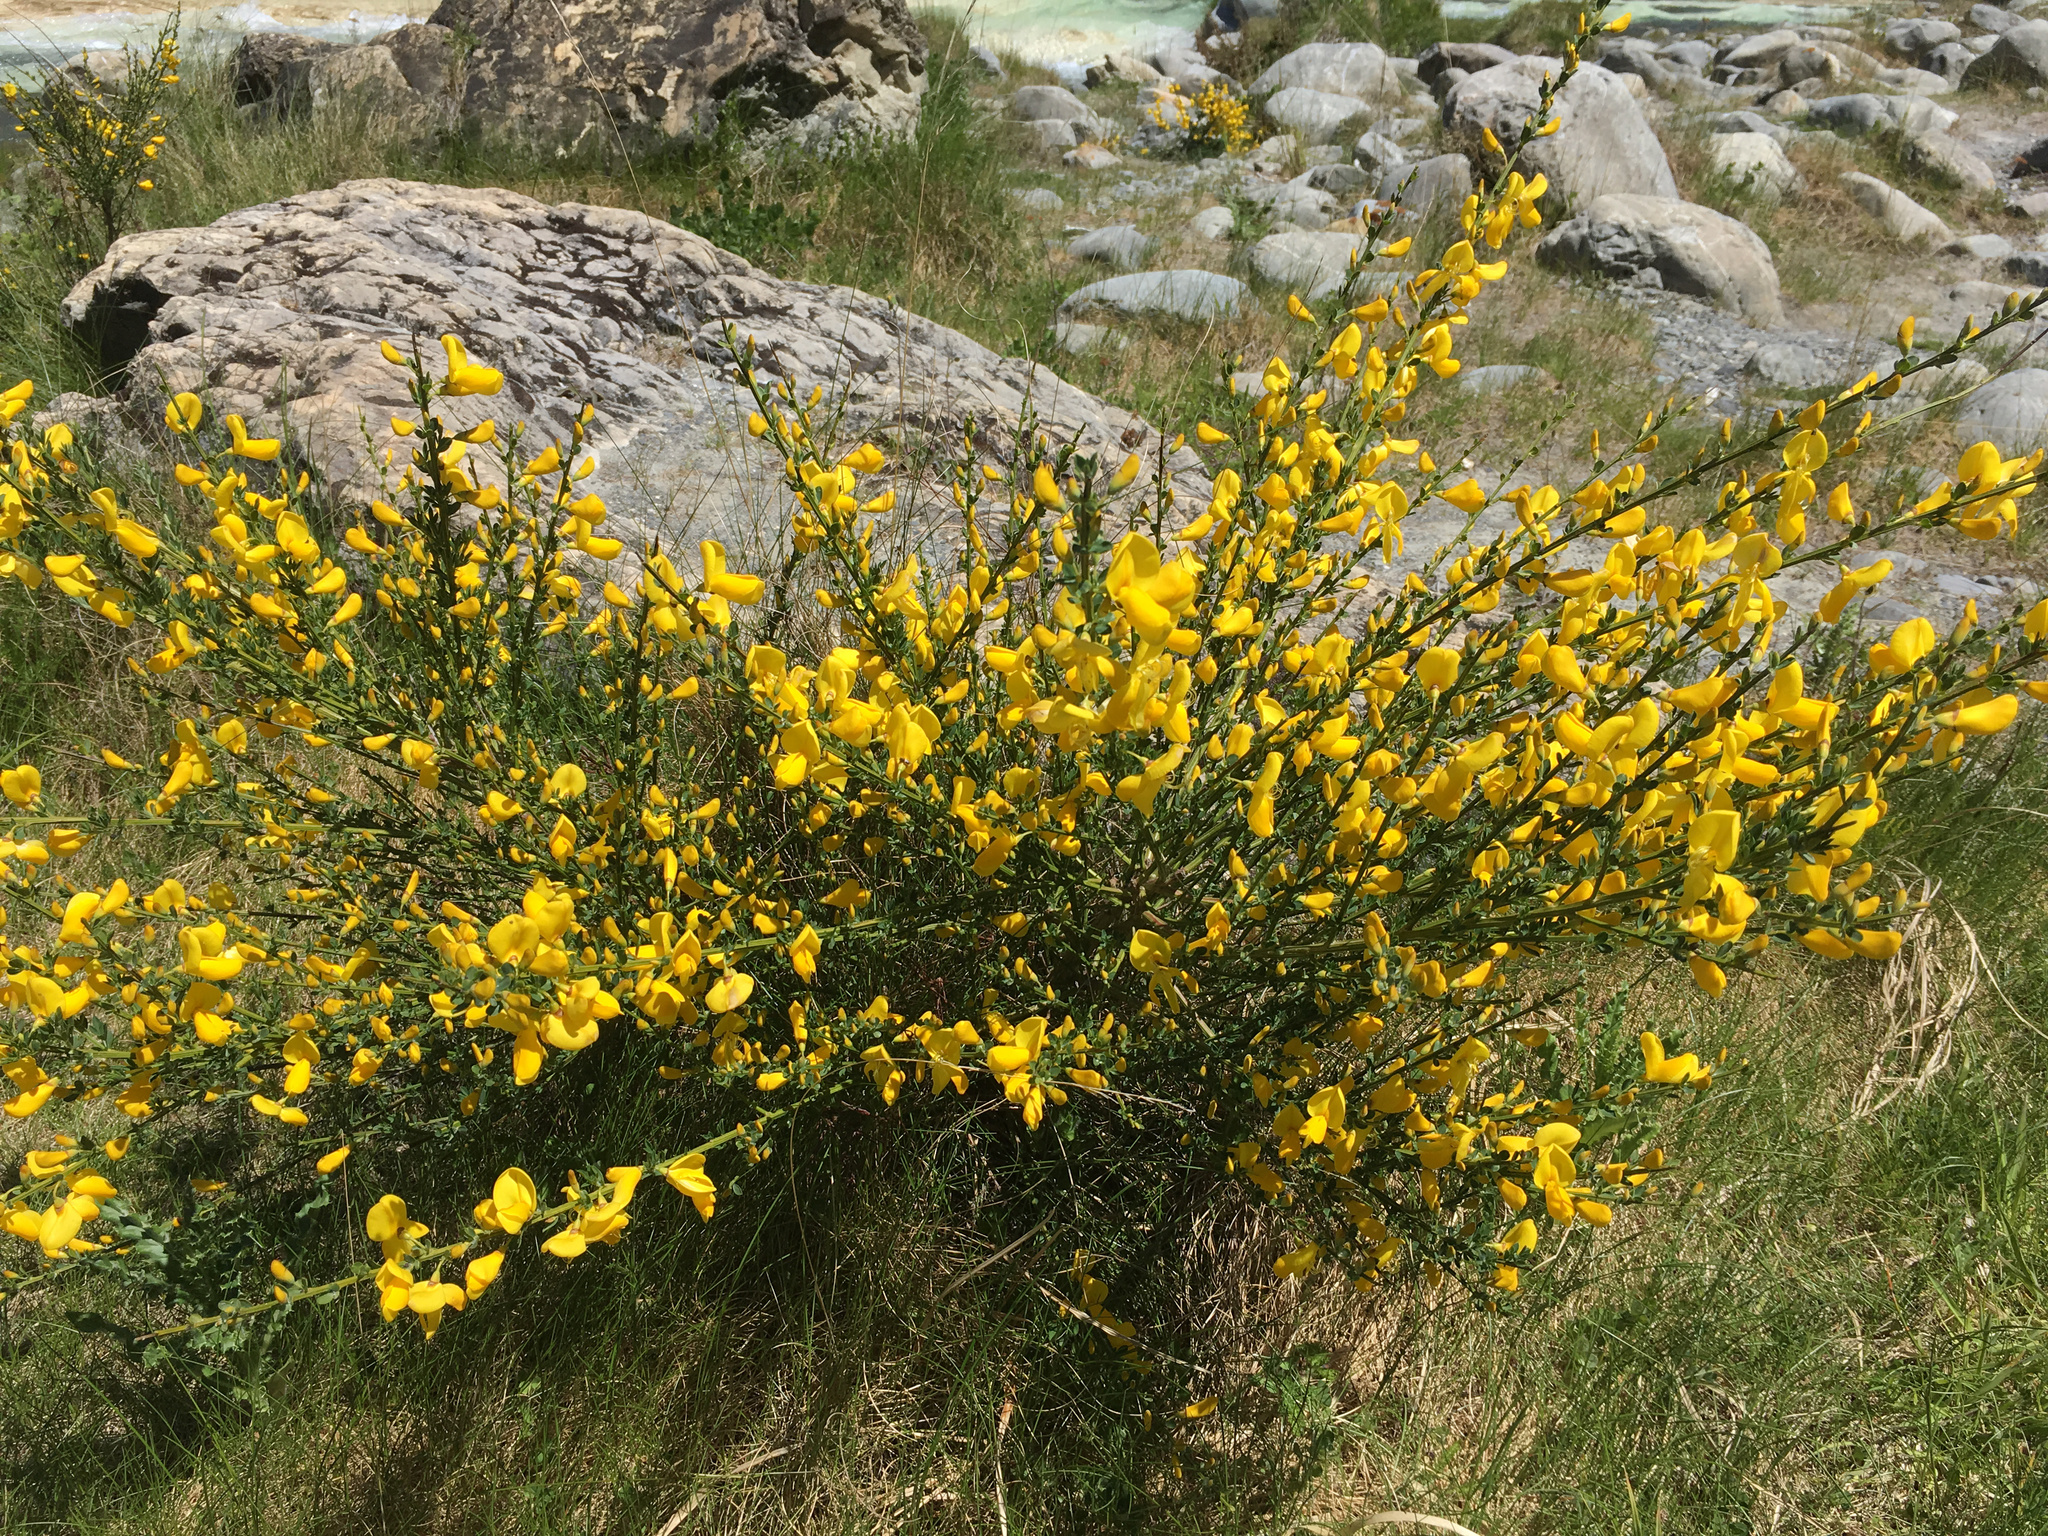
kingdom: Plantae
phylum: Tracheophyta
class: Magnoliopsida
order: Fabales
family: Fabaceae
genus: Cytisus
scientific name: Cytisus scoparius
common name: Scotch broom
